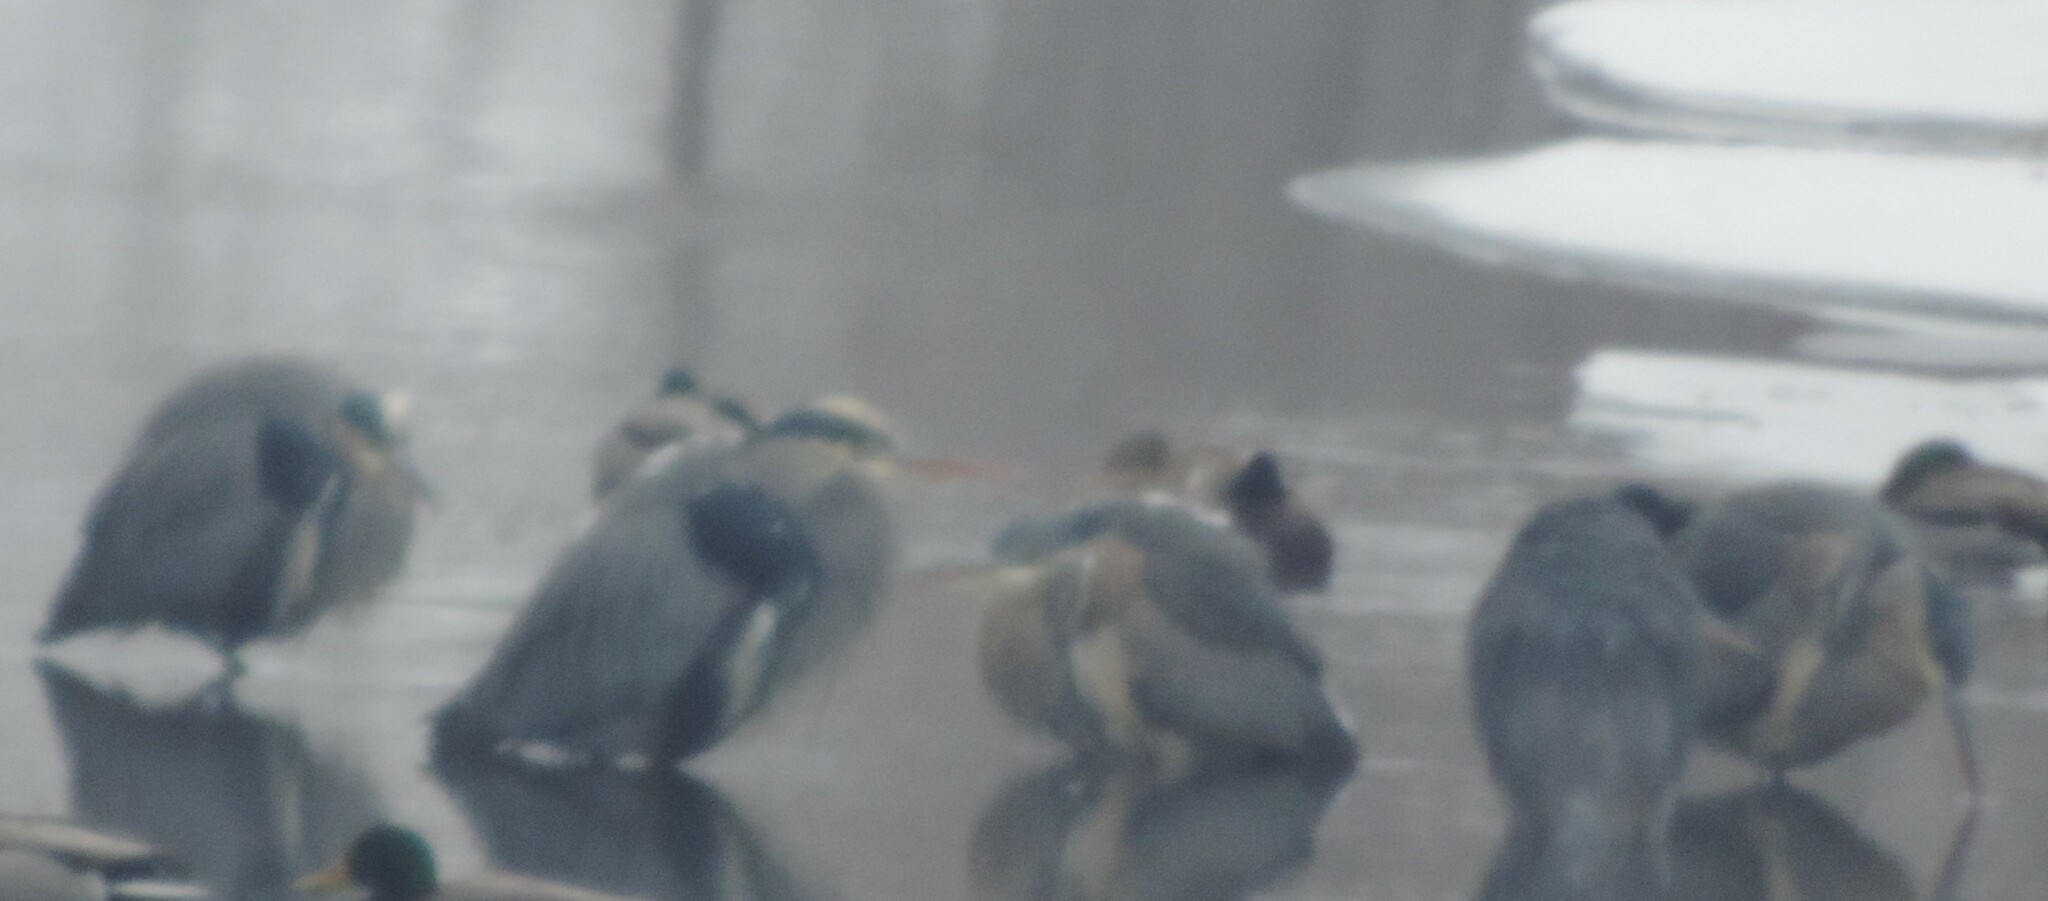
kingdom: Animalia
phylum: Chordata
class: Aves
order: Pelecaniformes
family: Ardeidae
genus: Ardea
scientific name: Ardea herodias
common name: Great blue heron
